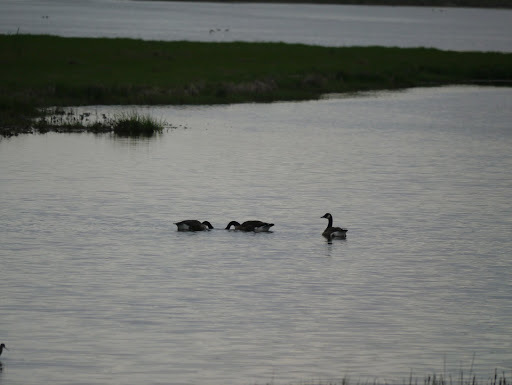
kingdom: Animalia
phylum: Chordata
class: Aves
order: Anseriformes
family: Anatidae
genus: Branta
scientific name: Branta canadensis
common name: Canada goose
